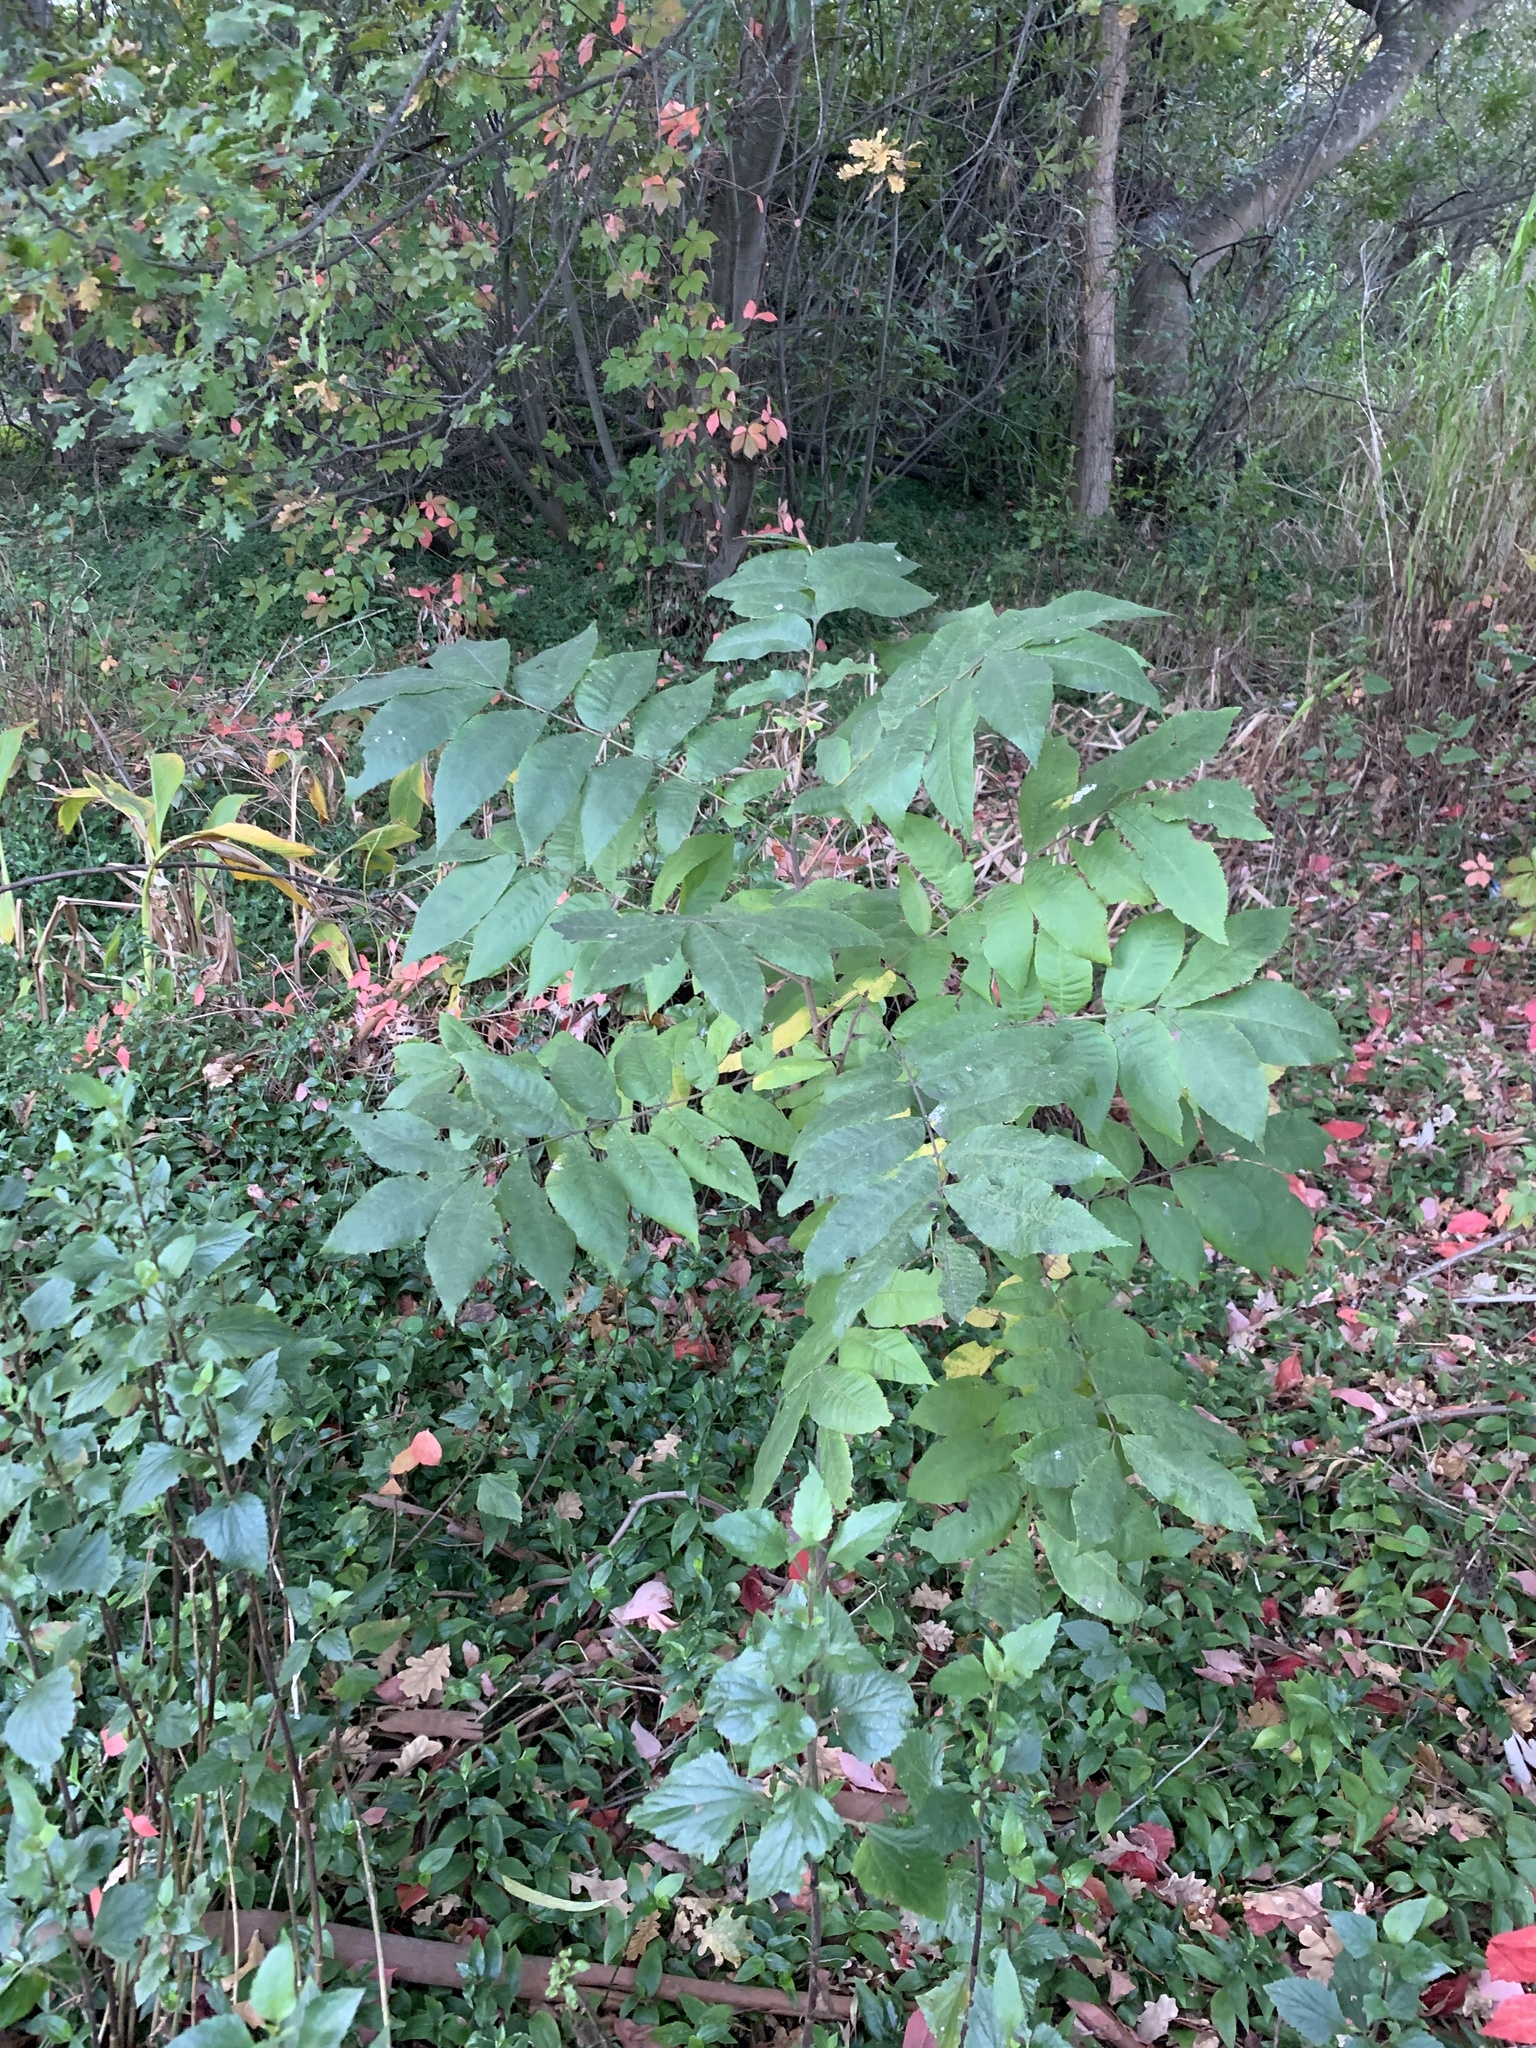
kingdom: Plantae
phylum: Tracheophyta
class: Magnoliopsida
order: Fagales
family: Juglandaceae
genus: Carya
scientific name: Carya illinoinensis
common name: Pecan
